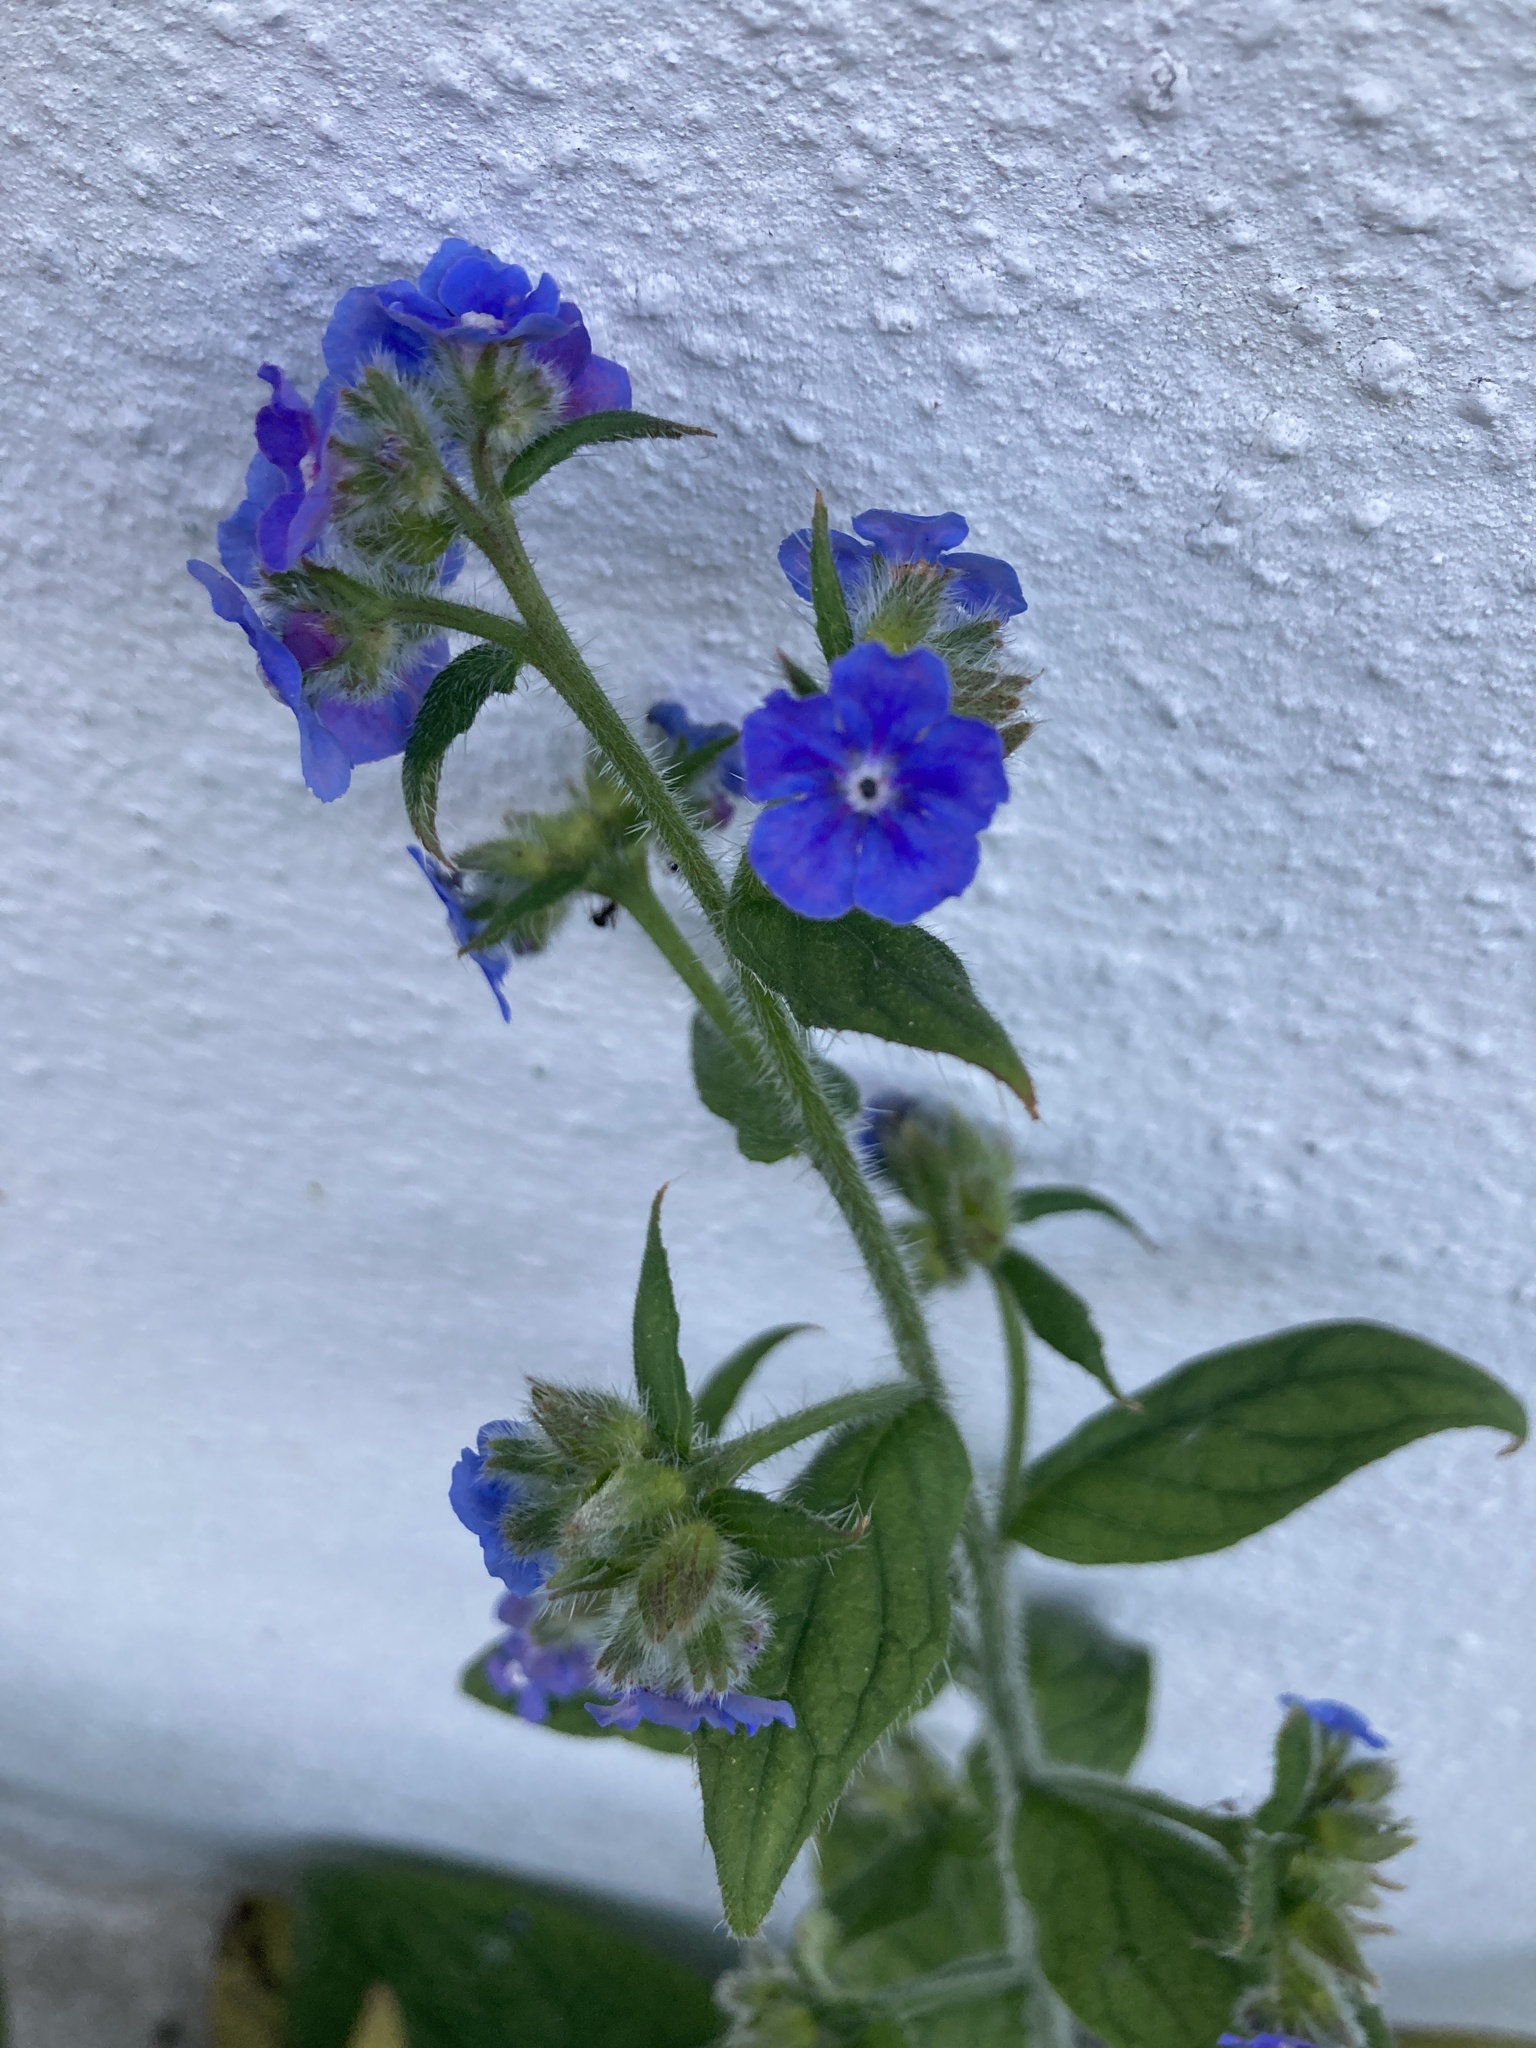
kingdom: Plantae
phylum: Tracheophyta
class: Magnoliopsida
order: Boraginales
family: Boraginaceae
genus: Pentaglottis
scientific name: Pentaglottis sempervirens
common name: Green alkanet
